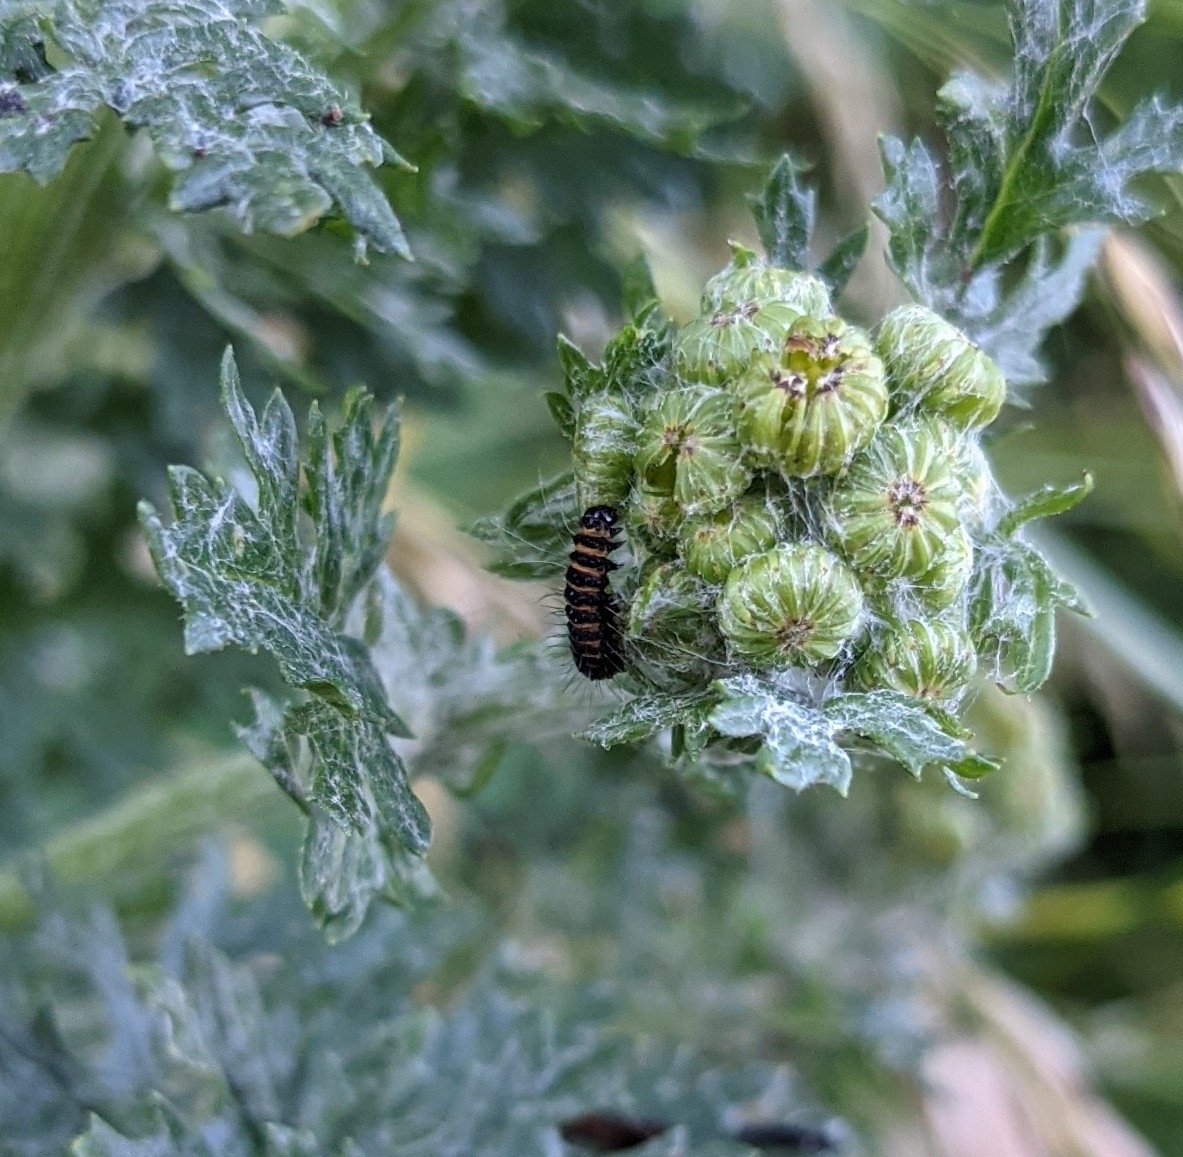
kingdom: Animalia
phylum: Arthropoda
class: Insecta
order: Lepidoptera
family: Erebidae
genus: Tyria
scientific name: Tyria jacobaeae
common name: Cinnabar
